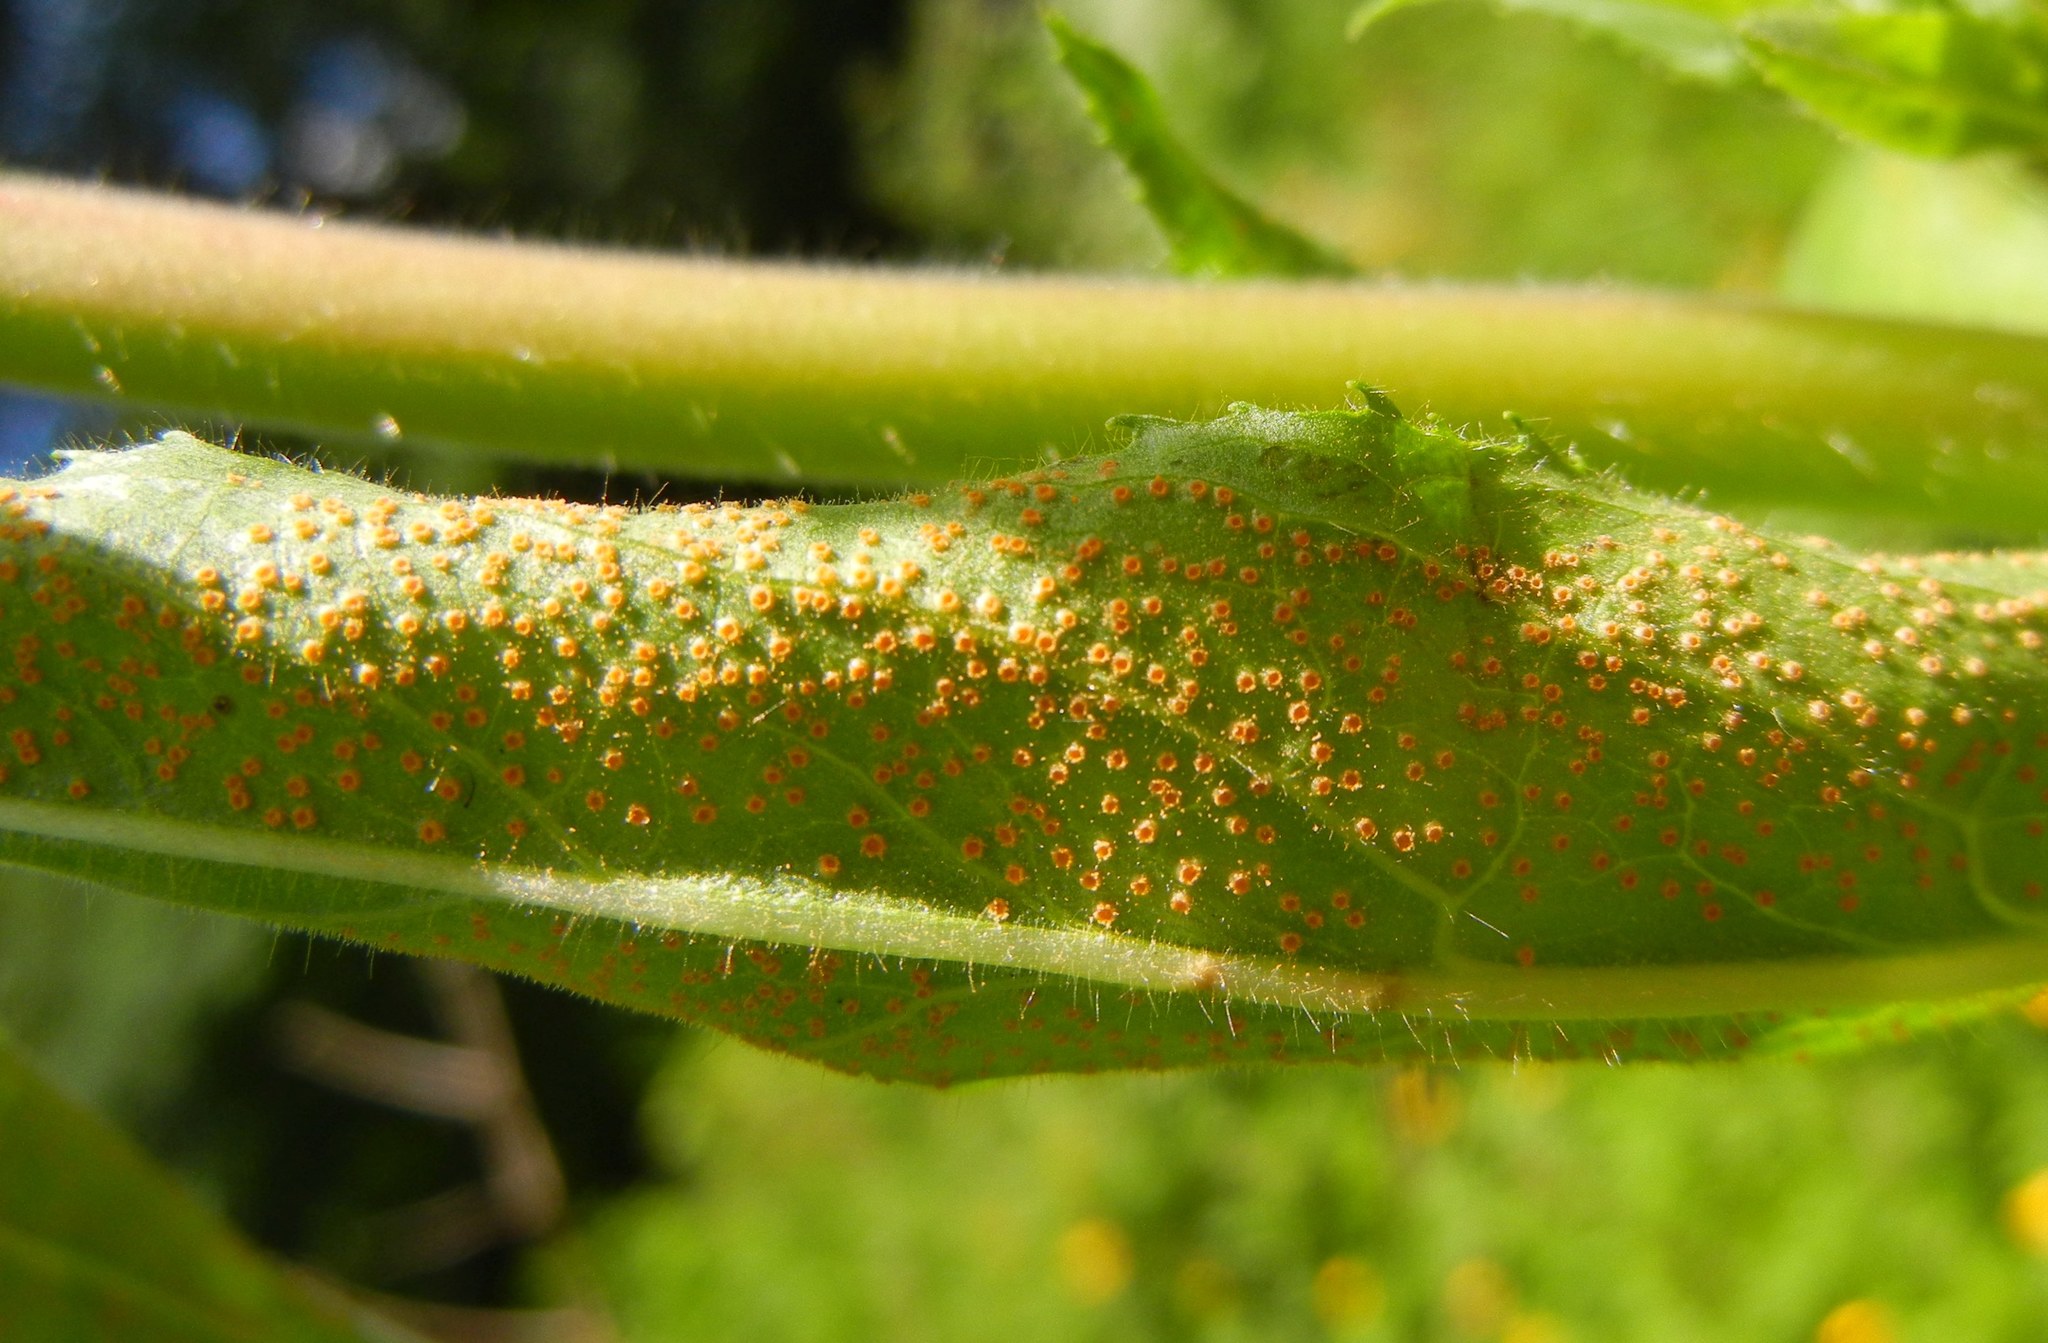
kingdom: Fungi
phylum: Basidiomycota
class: Pucciniomycetes
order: Pucciniales
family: Pucciniaceae
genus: Puccinia
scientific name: Puccinia pulverulenta
